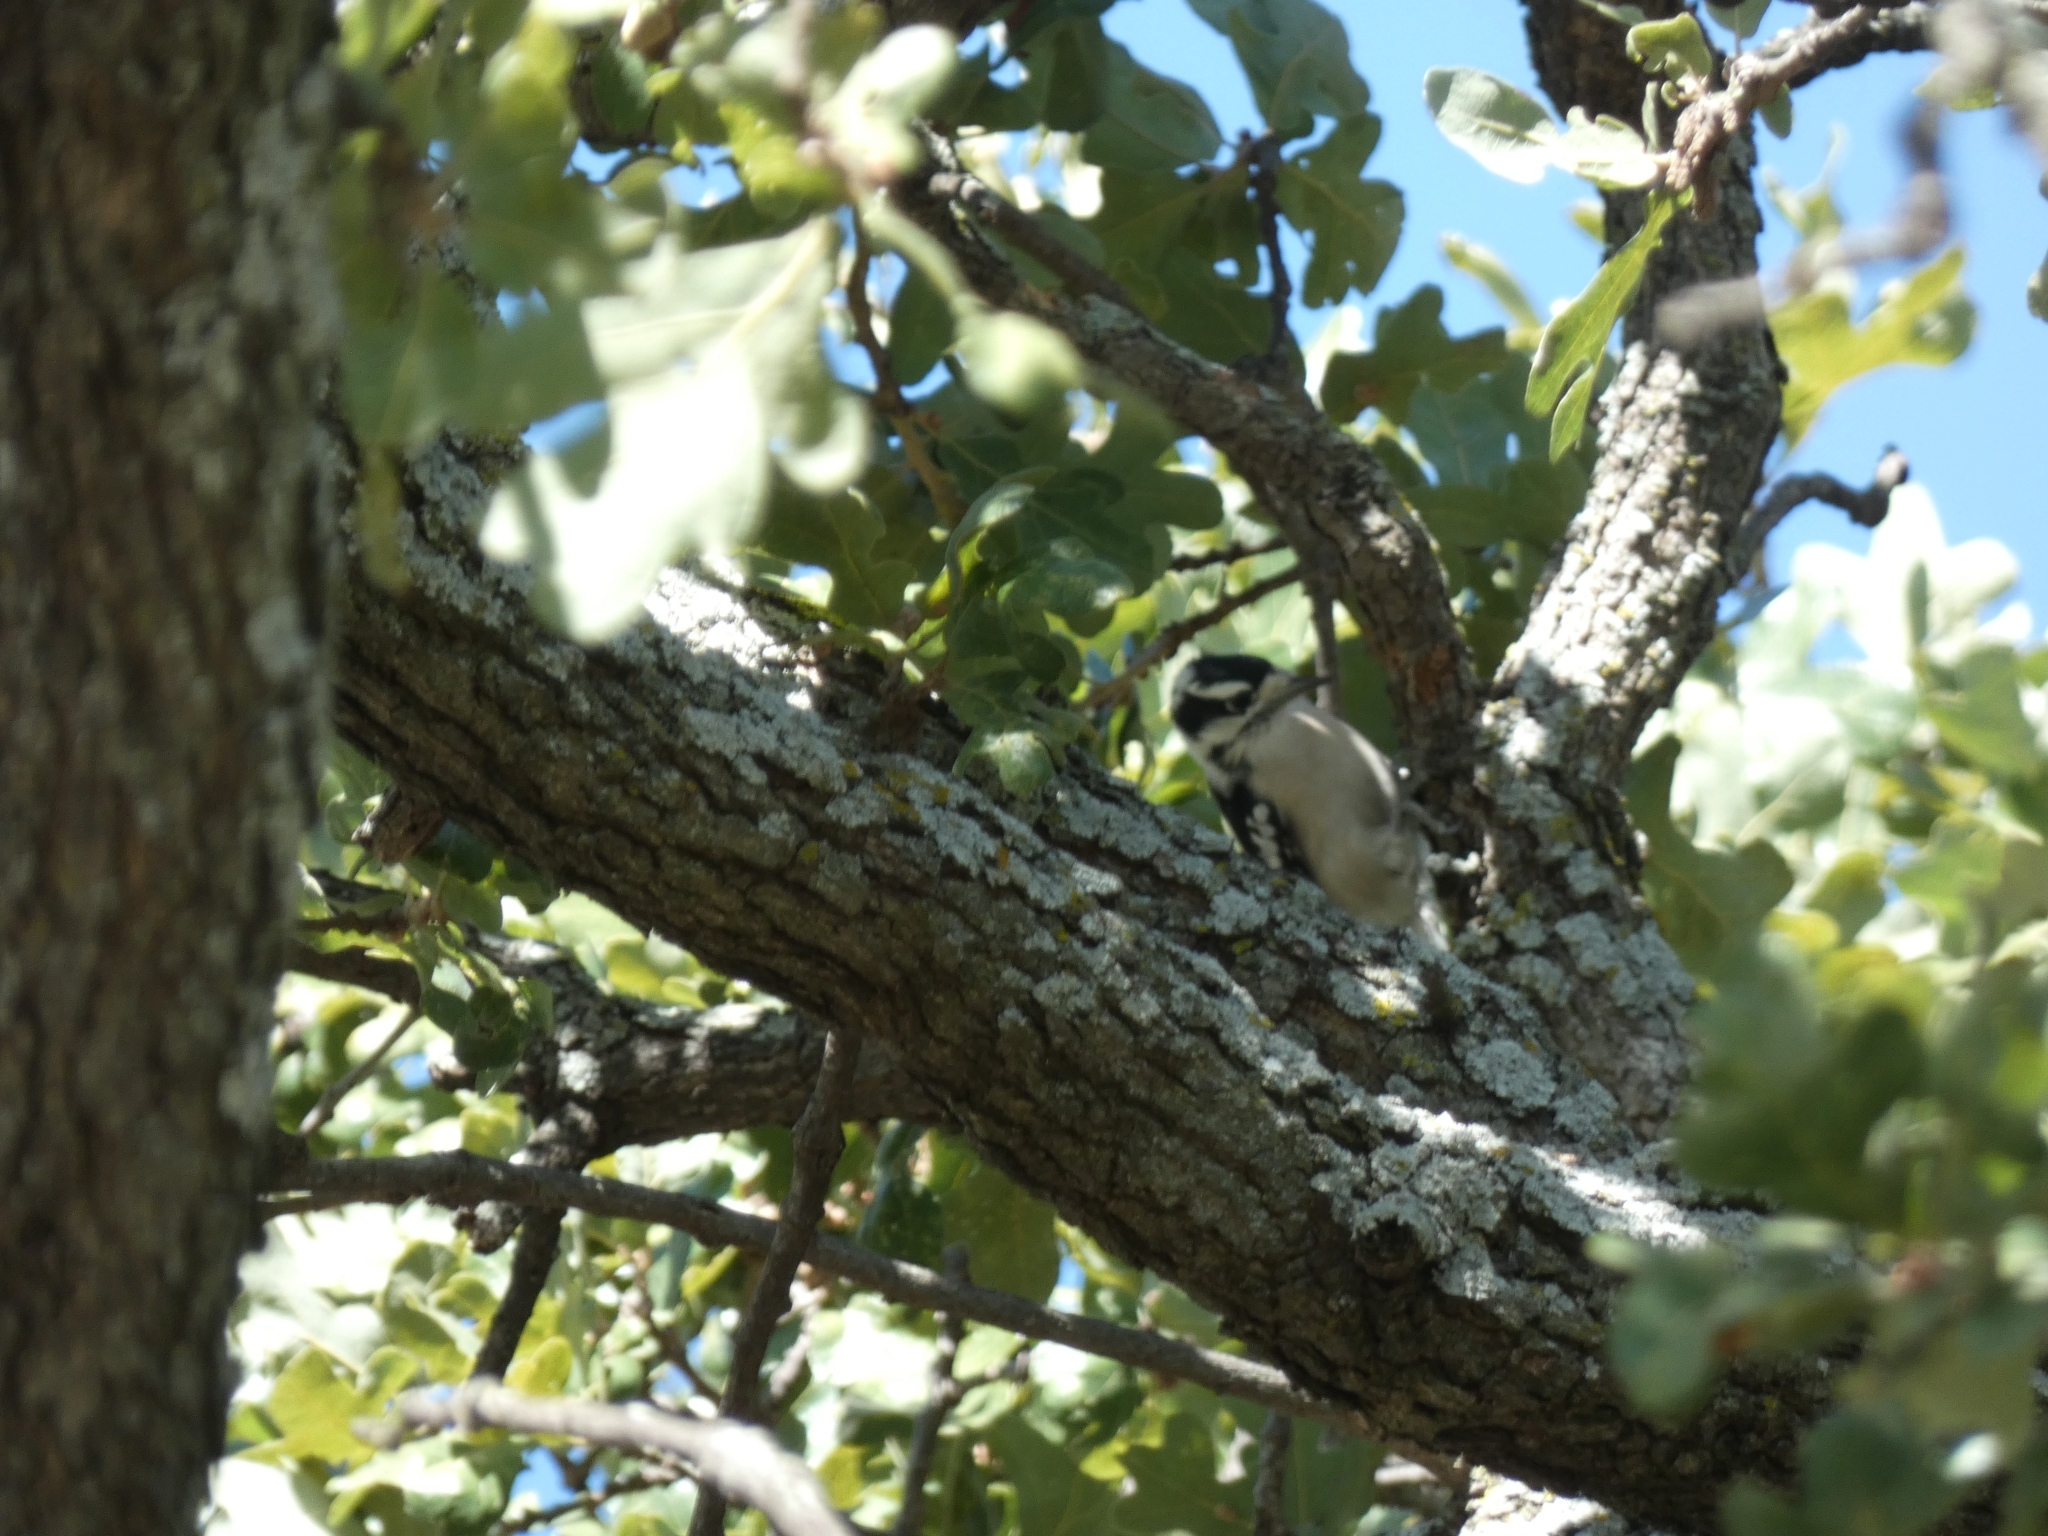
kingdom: Animalia
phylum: Chordata
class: Aves
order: Piciformes
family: Picidae
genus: Dryobates
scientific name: Dryobates pubescens
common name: Downy woodpecker
